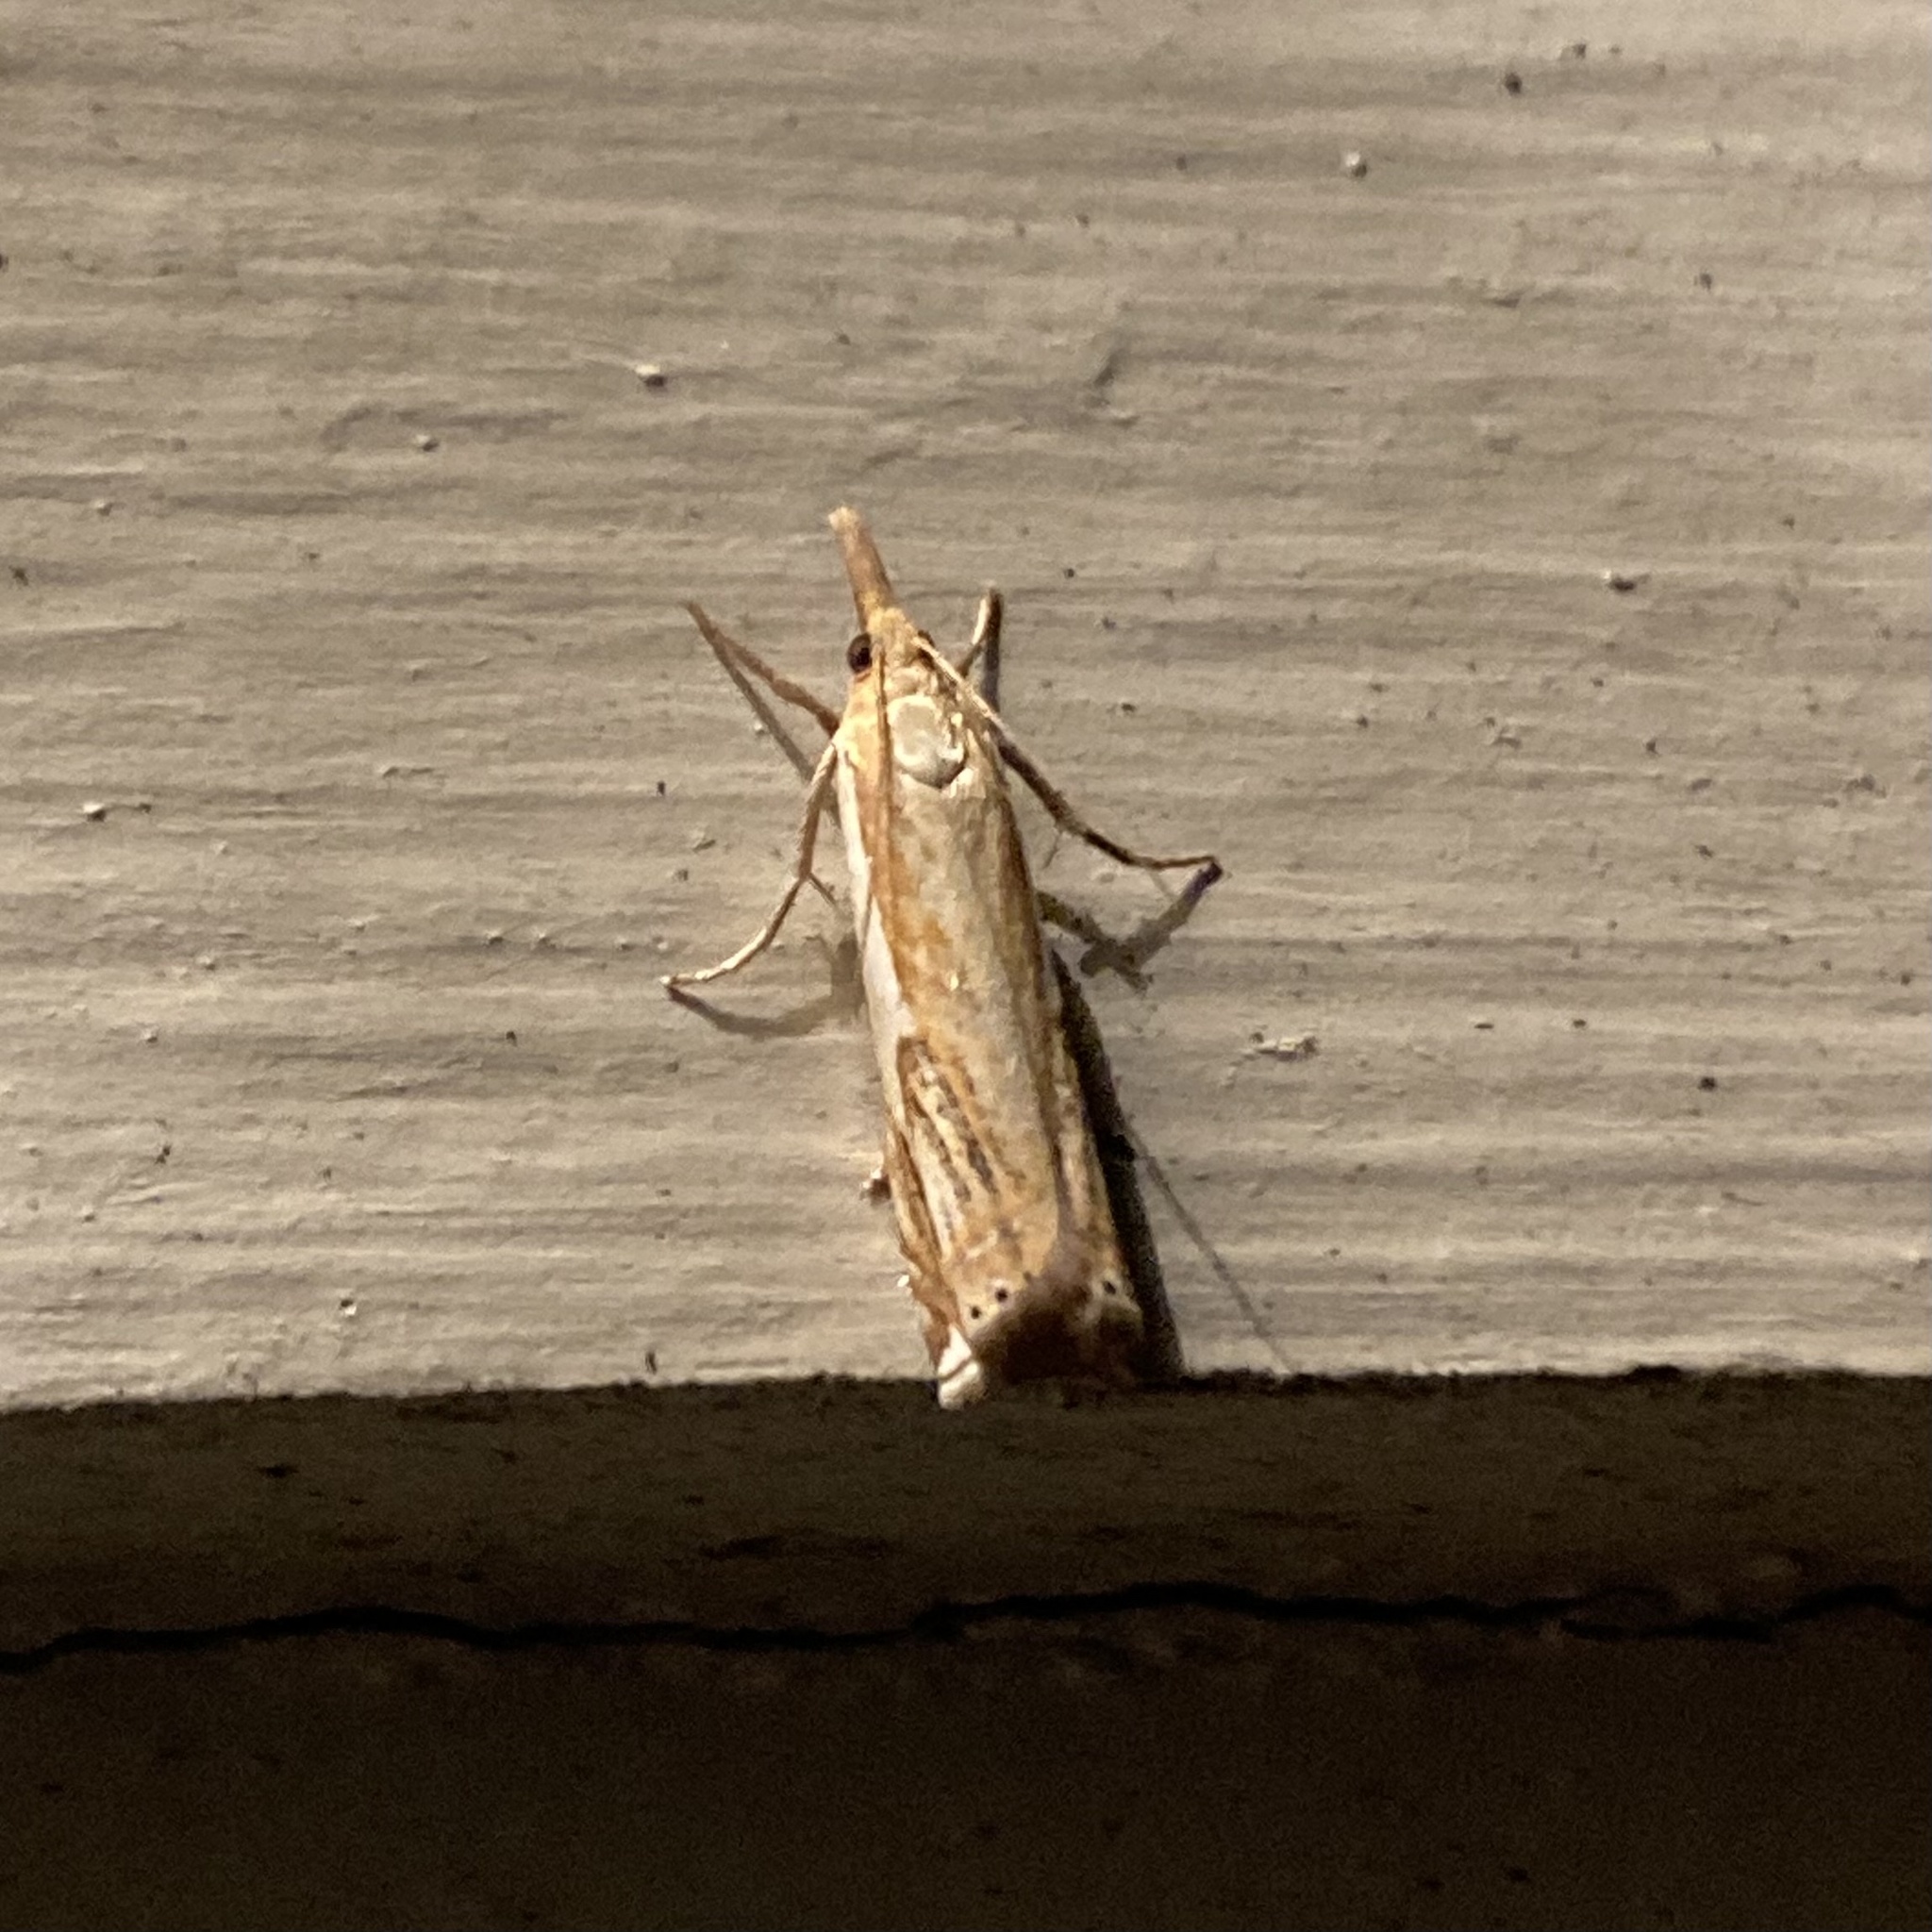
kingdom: Animalia
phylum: Arthropoda
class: Insecta
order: Lepidoptera
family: Crambidae
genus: Crambus
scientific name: Crambus agitatellus
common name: Double-banded grass-veneer
